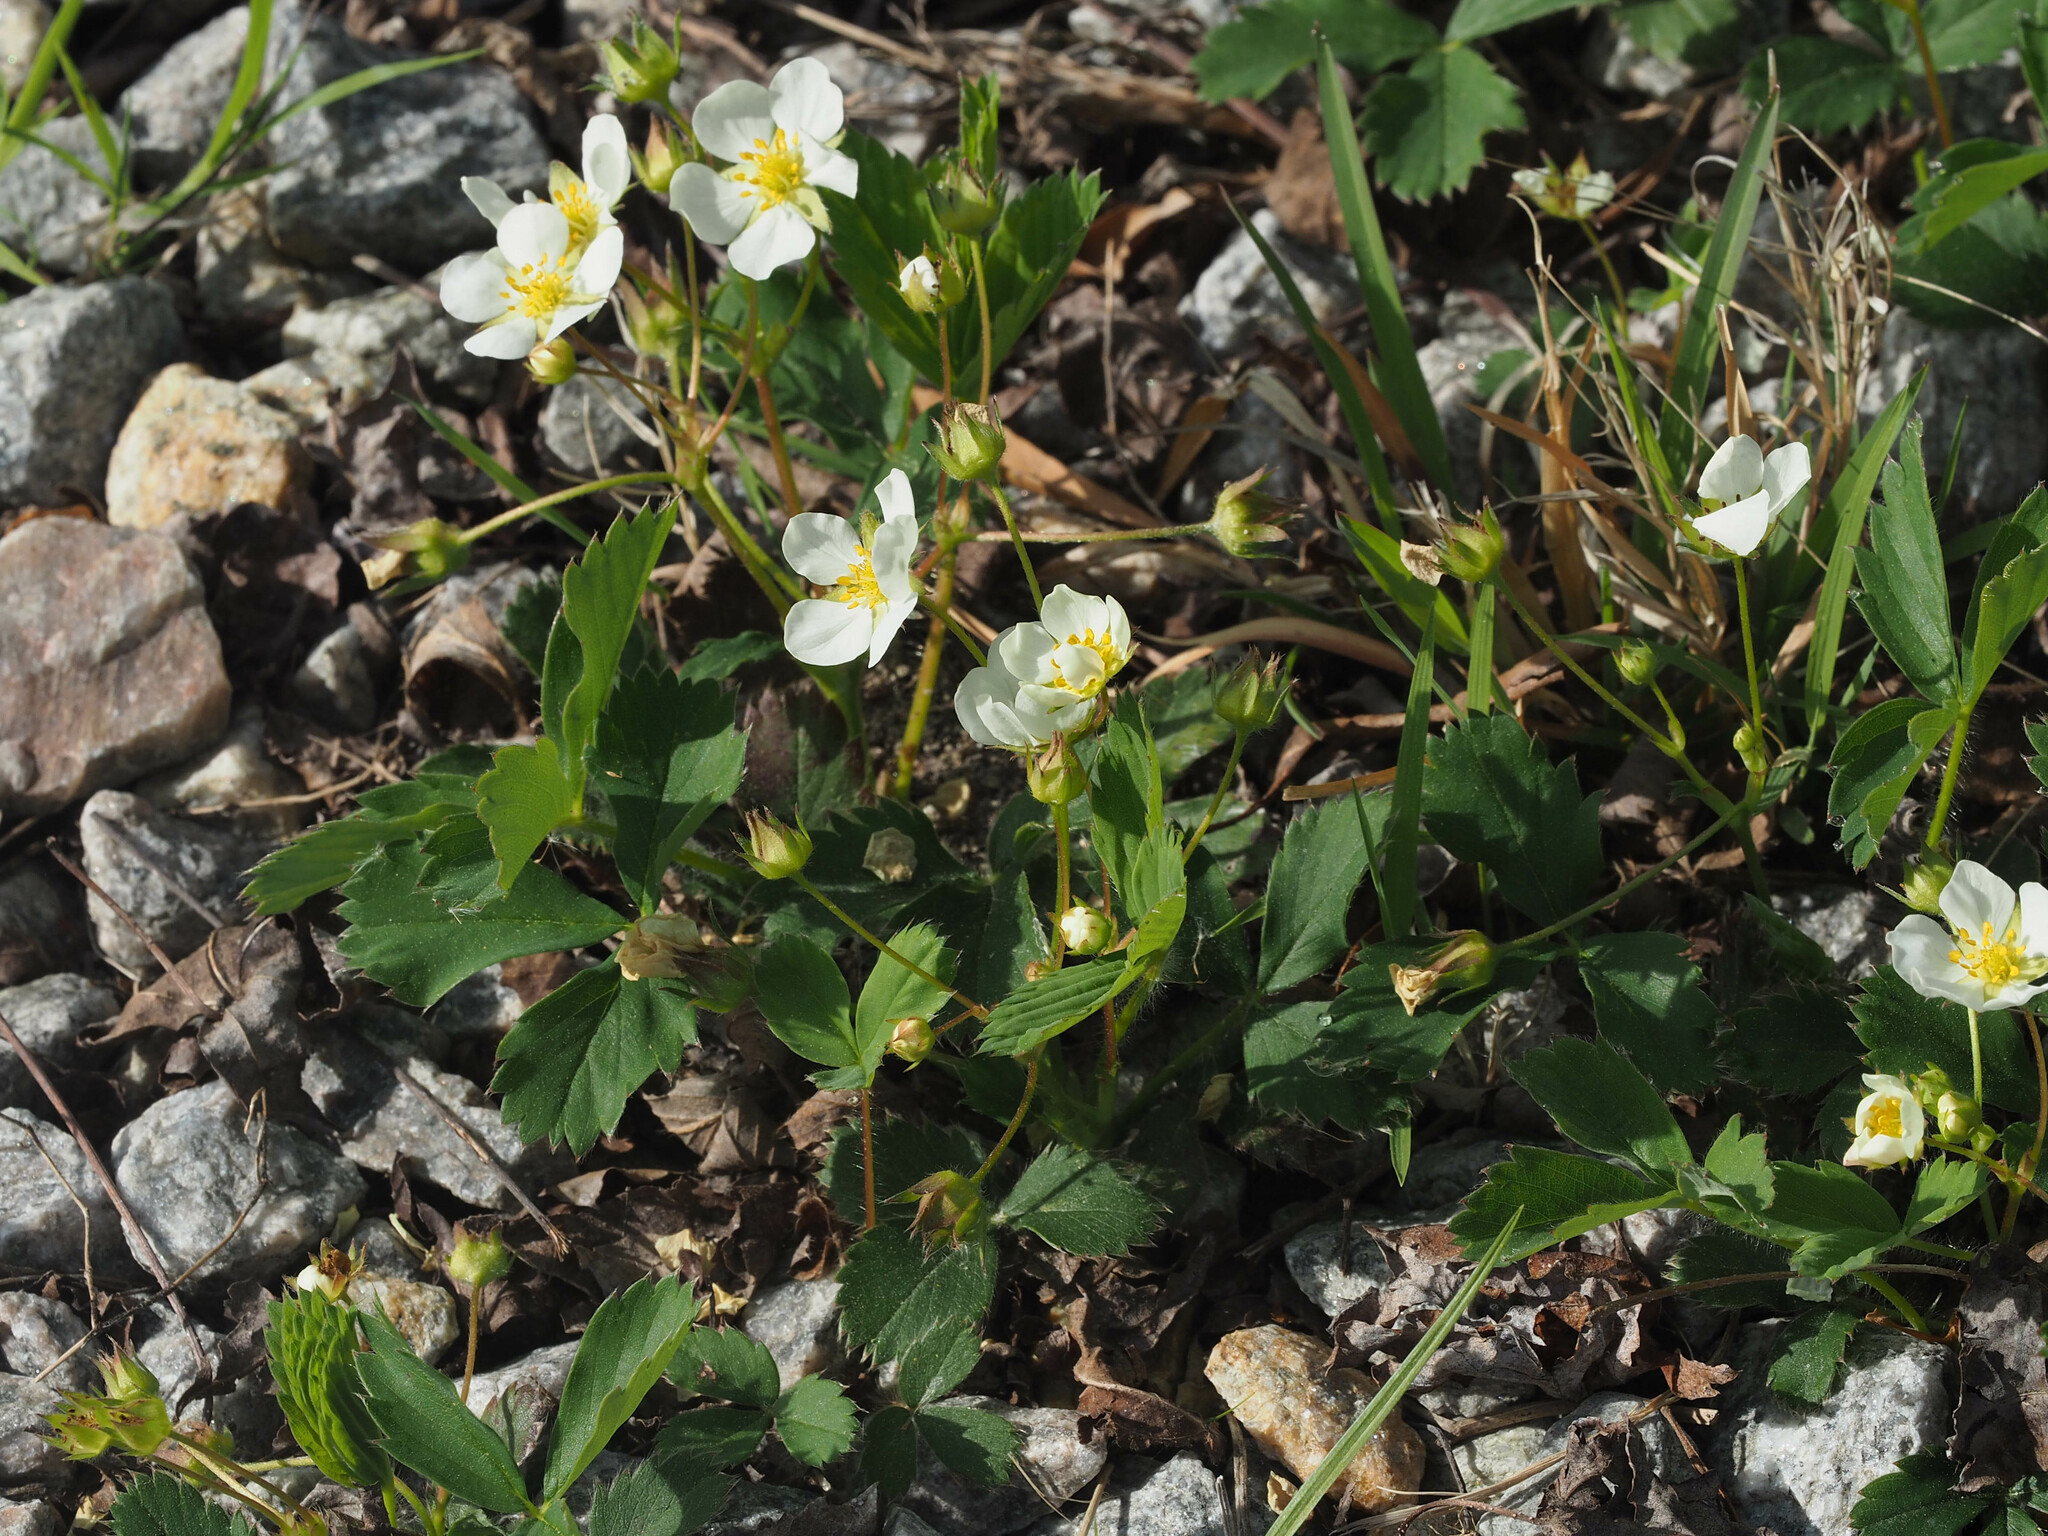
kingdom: Plantae
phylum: Tracheophyta
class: Magnoliopsida
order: Rosales
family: Rosaceae
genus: Fragaria
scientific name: Fragaria virginiana
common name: Thickleaved wild strawberry
